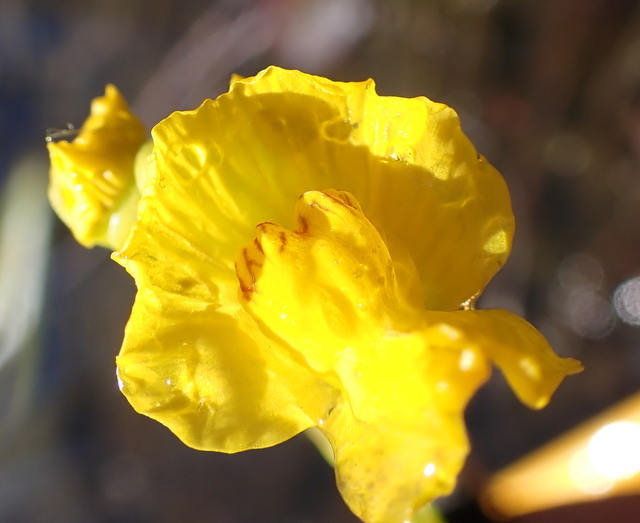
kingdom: Plantae
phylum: Tracheophyta
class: Magnoliopsida
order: Lamiales
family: Lentibulariaceae
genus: Utricularia
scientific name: Utricularia floridana
